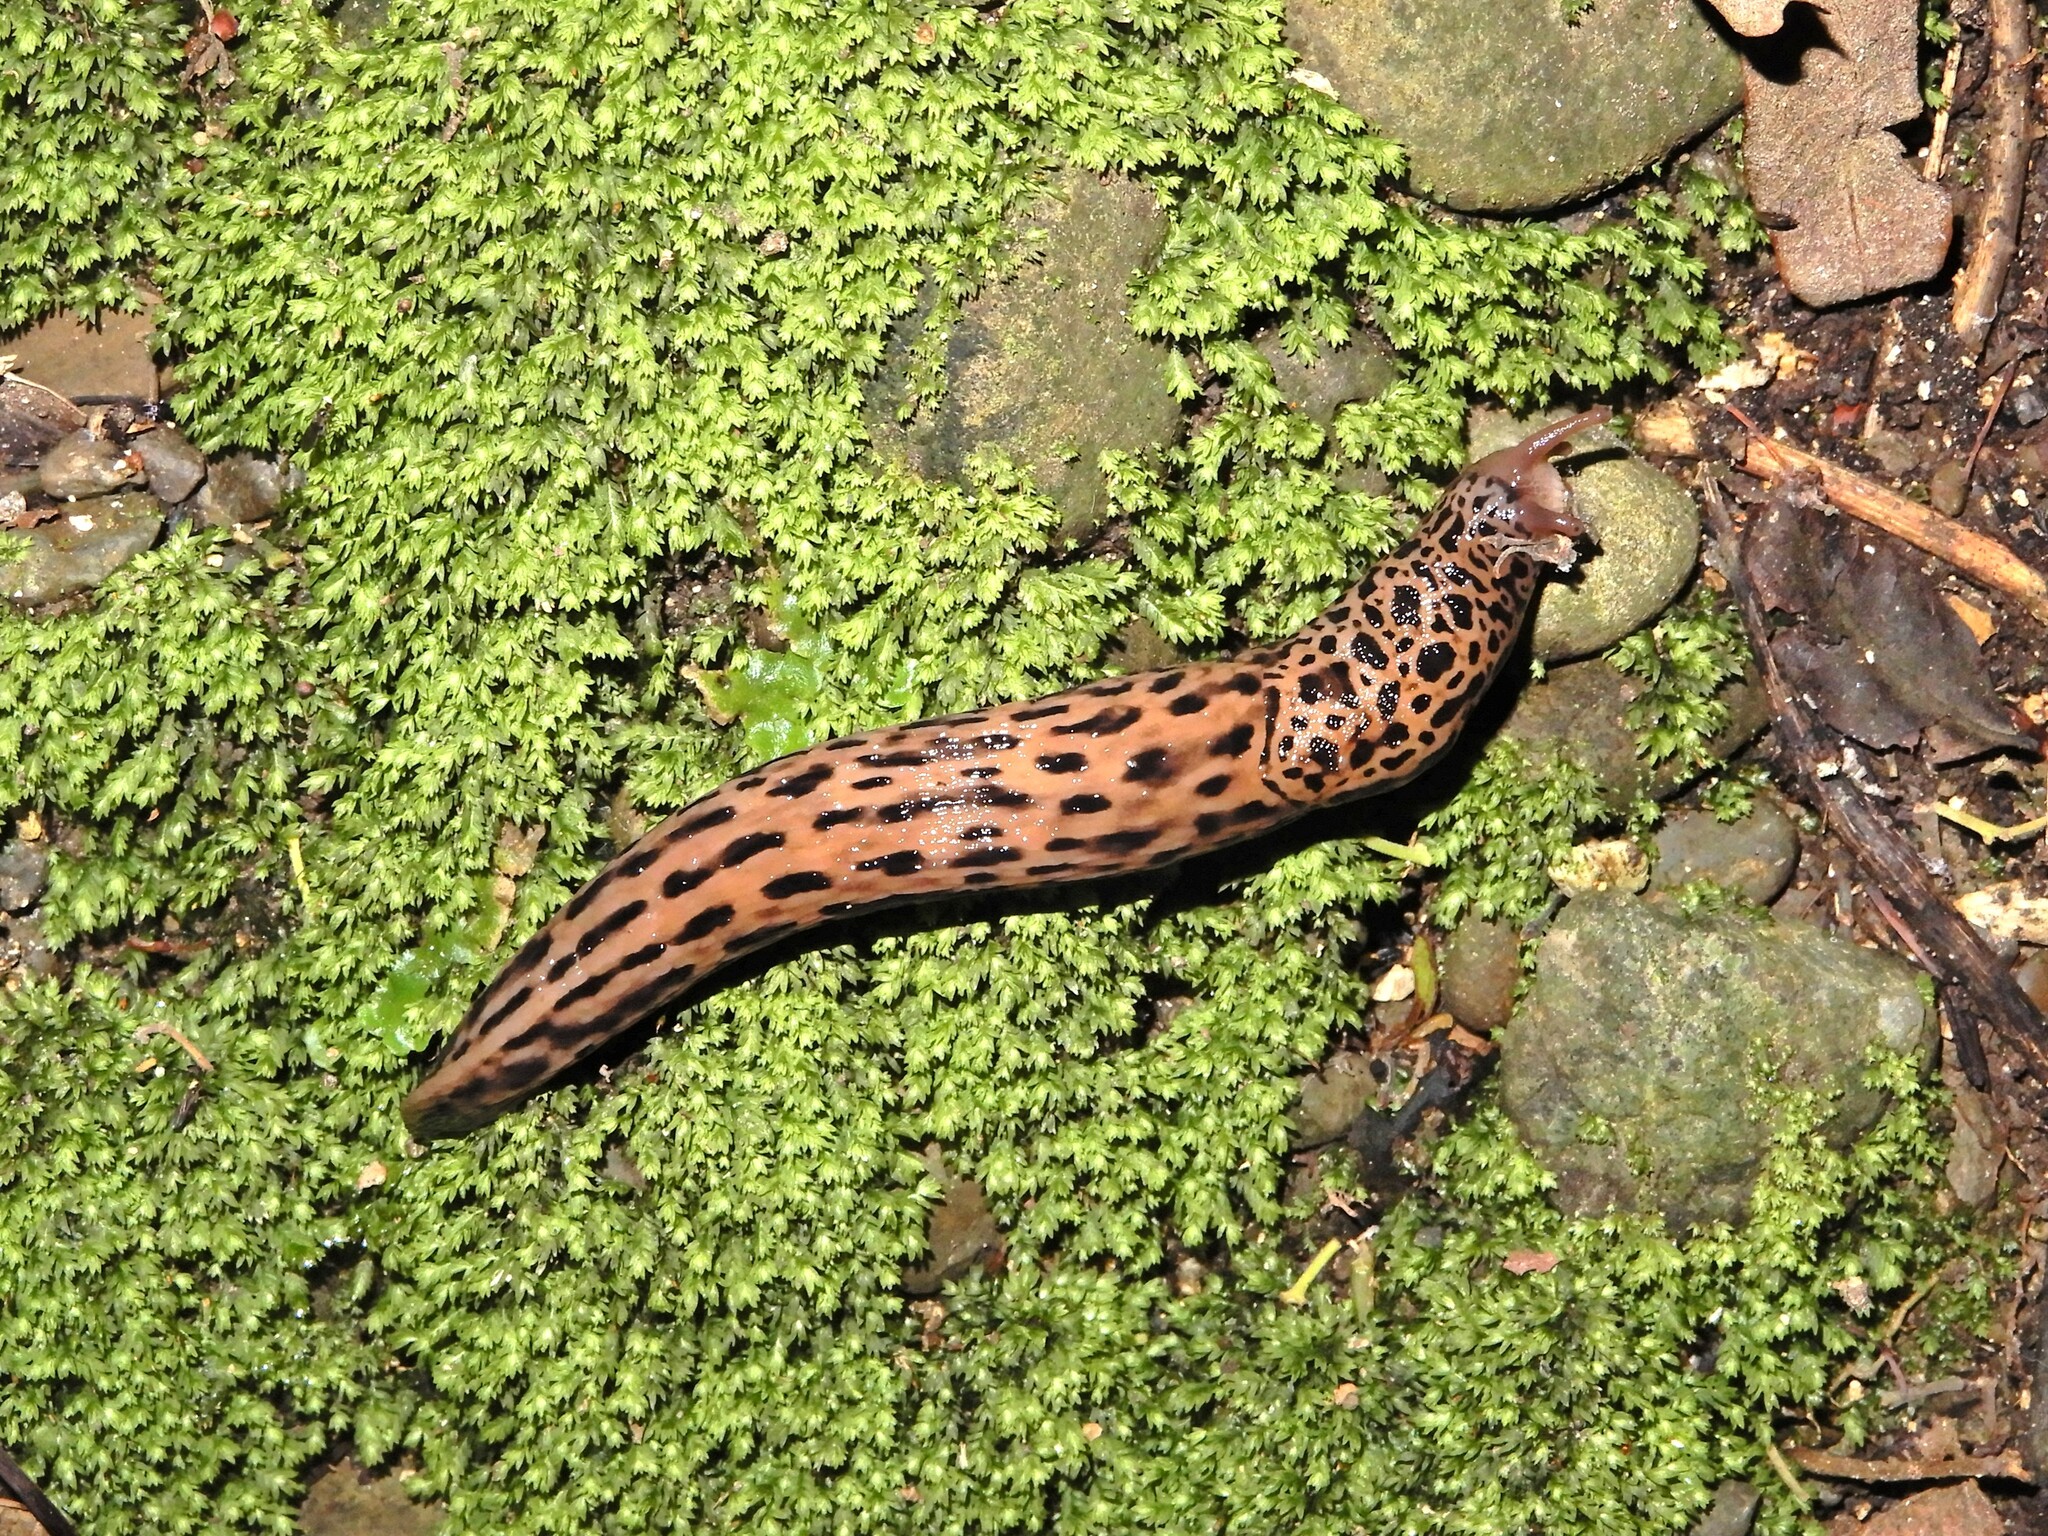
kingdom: Animalia
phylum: Mollusca
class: Gastropoda
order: Stylommatophora
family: Limacidae
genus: Limax
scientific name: Limax maximus
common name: Great grey slug
